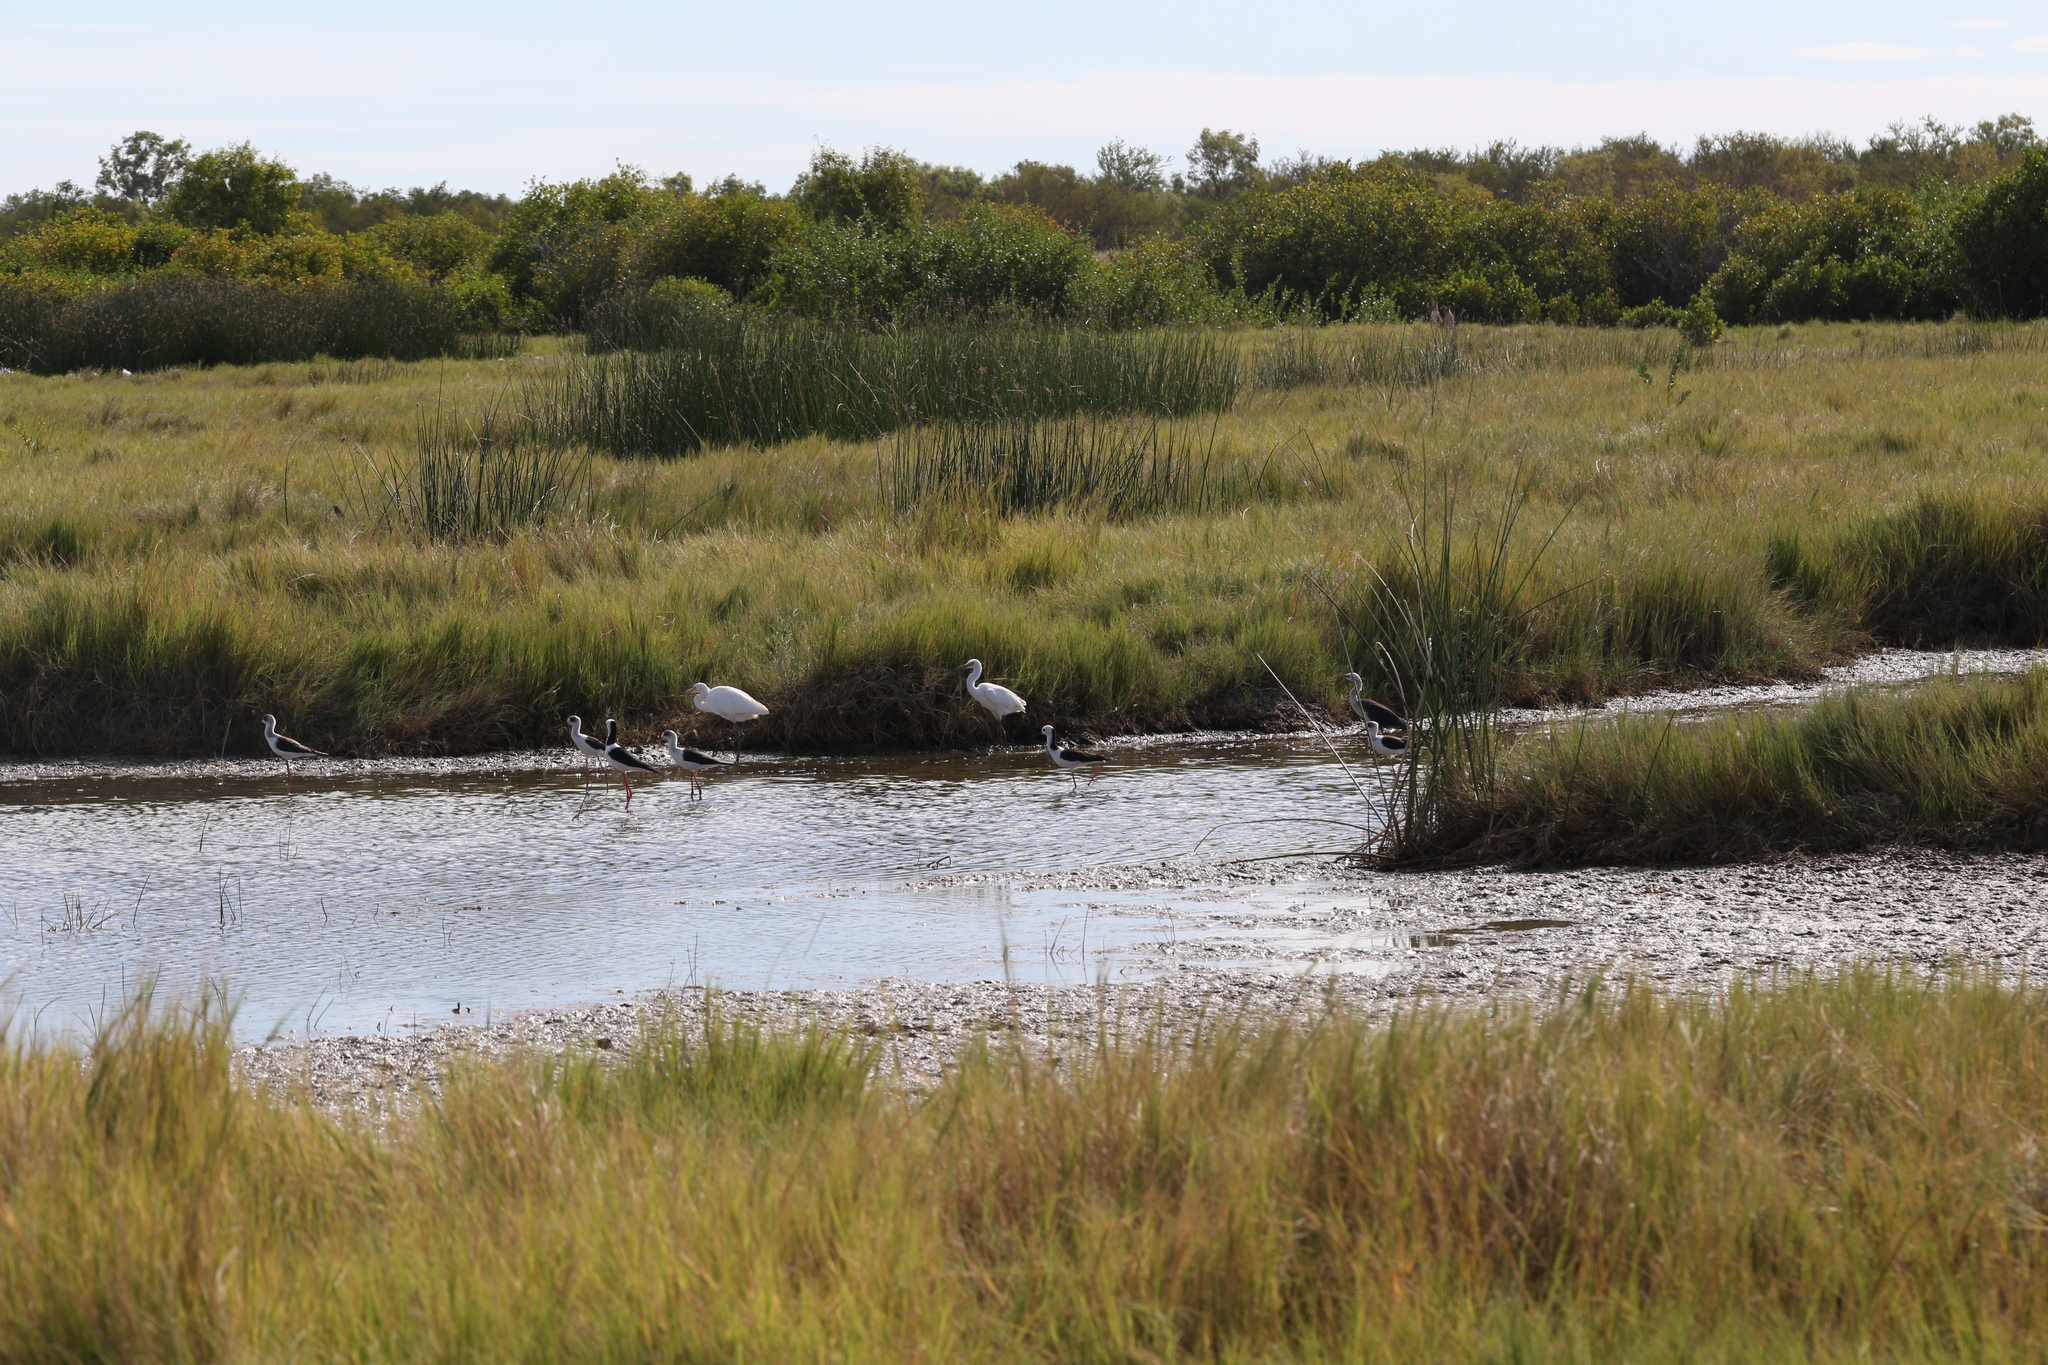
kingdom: Animalia
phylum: Chordata
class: Aves
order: Pelecaniformes
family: Ardeidae
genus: Egretta
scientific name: Egretta garzetta
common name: Little egret
